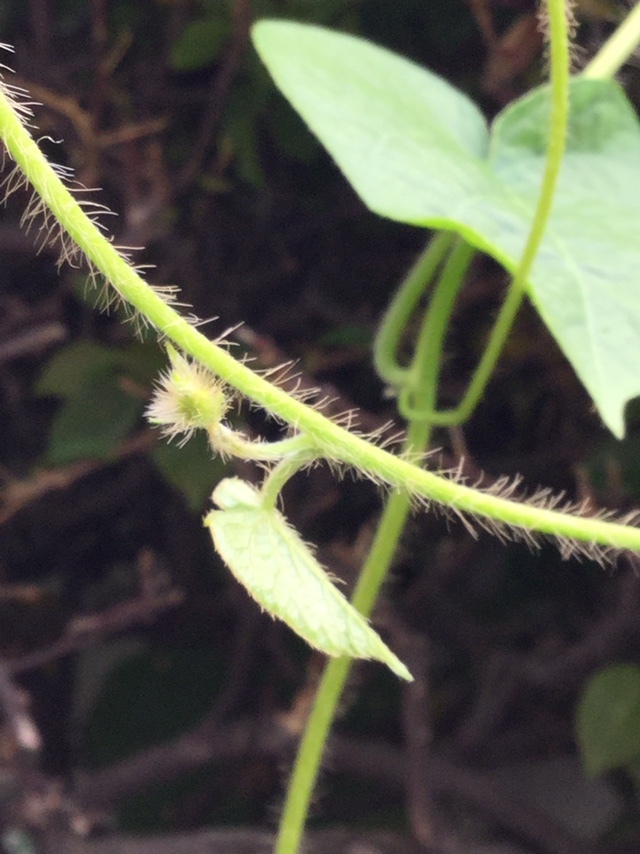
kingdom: Plantae
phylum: Tracheophyta
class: Magnoliopsida
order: Solanales
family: Convolvulaceae
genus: Ipomoea
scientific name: Ipomoea purpurea
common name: Common morning-glory
